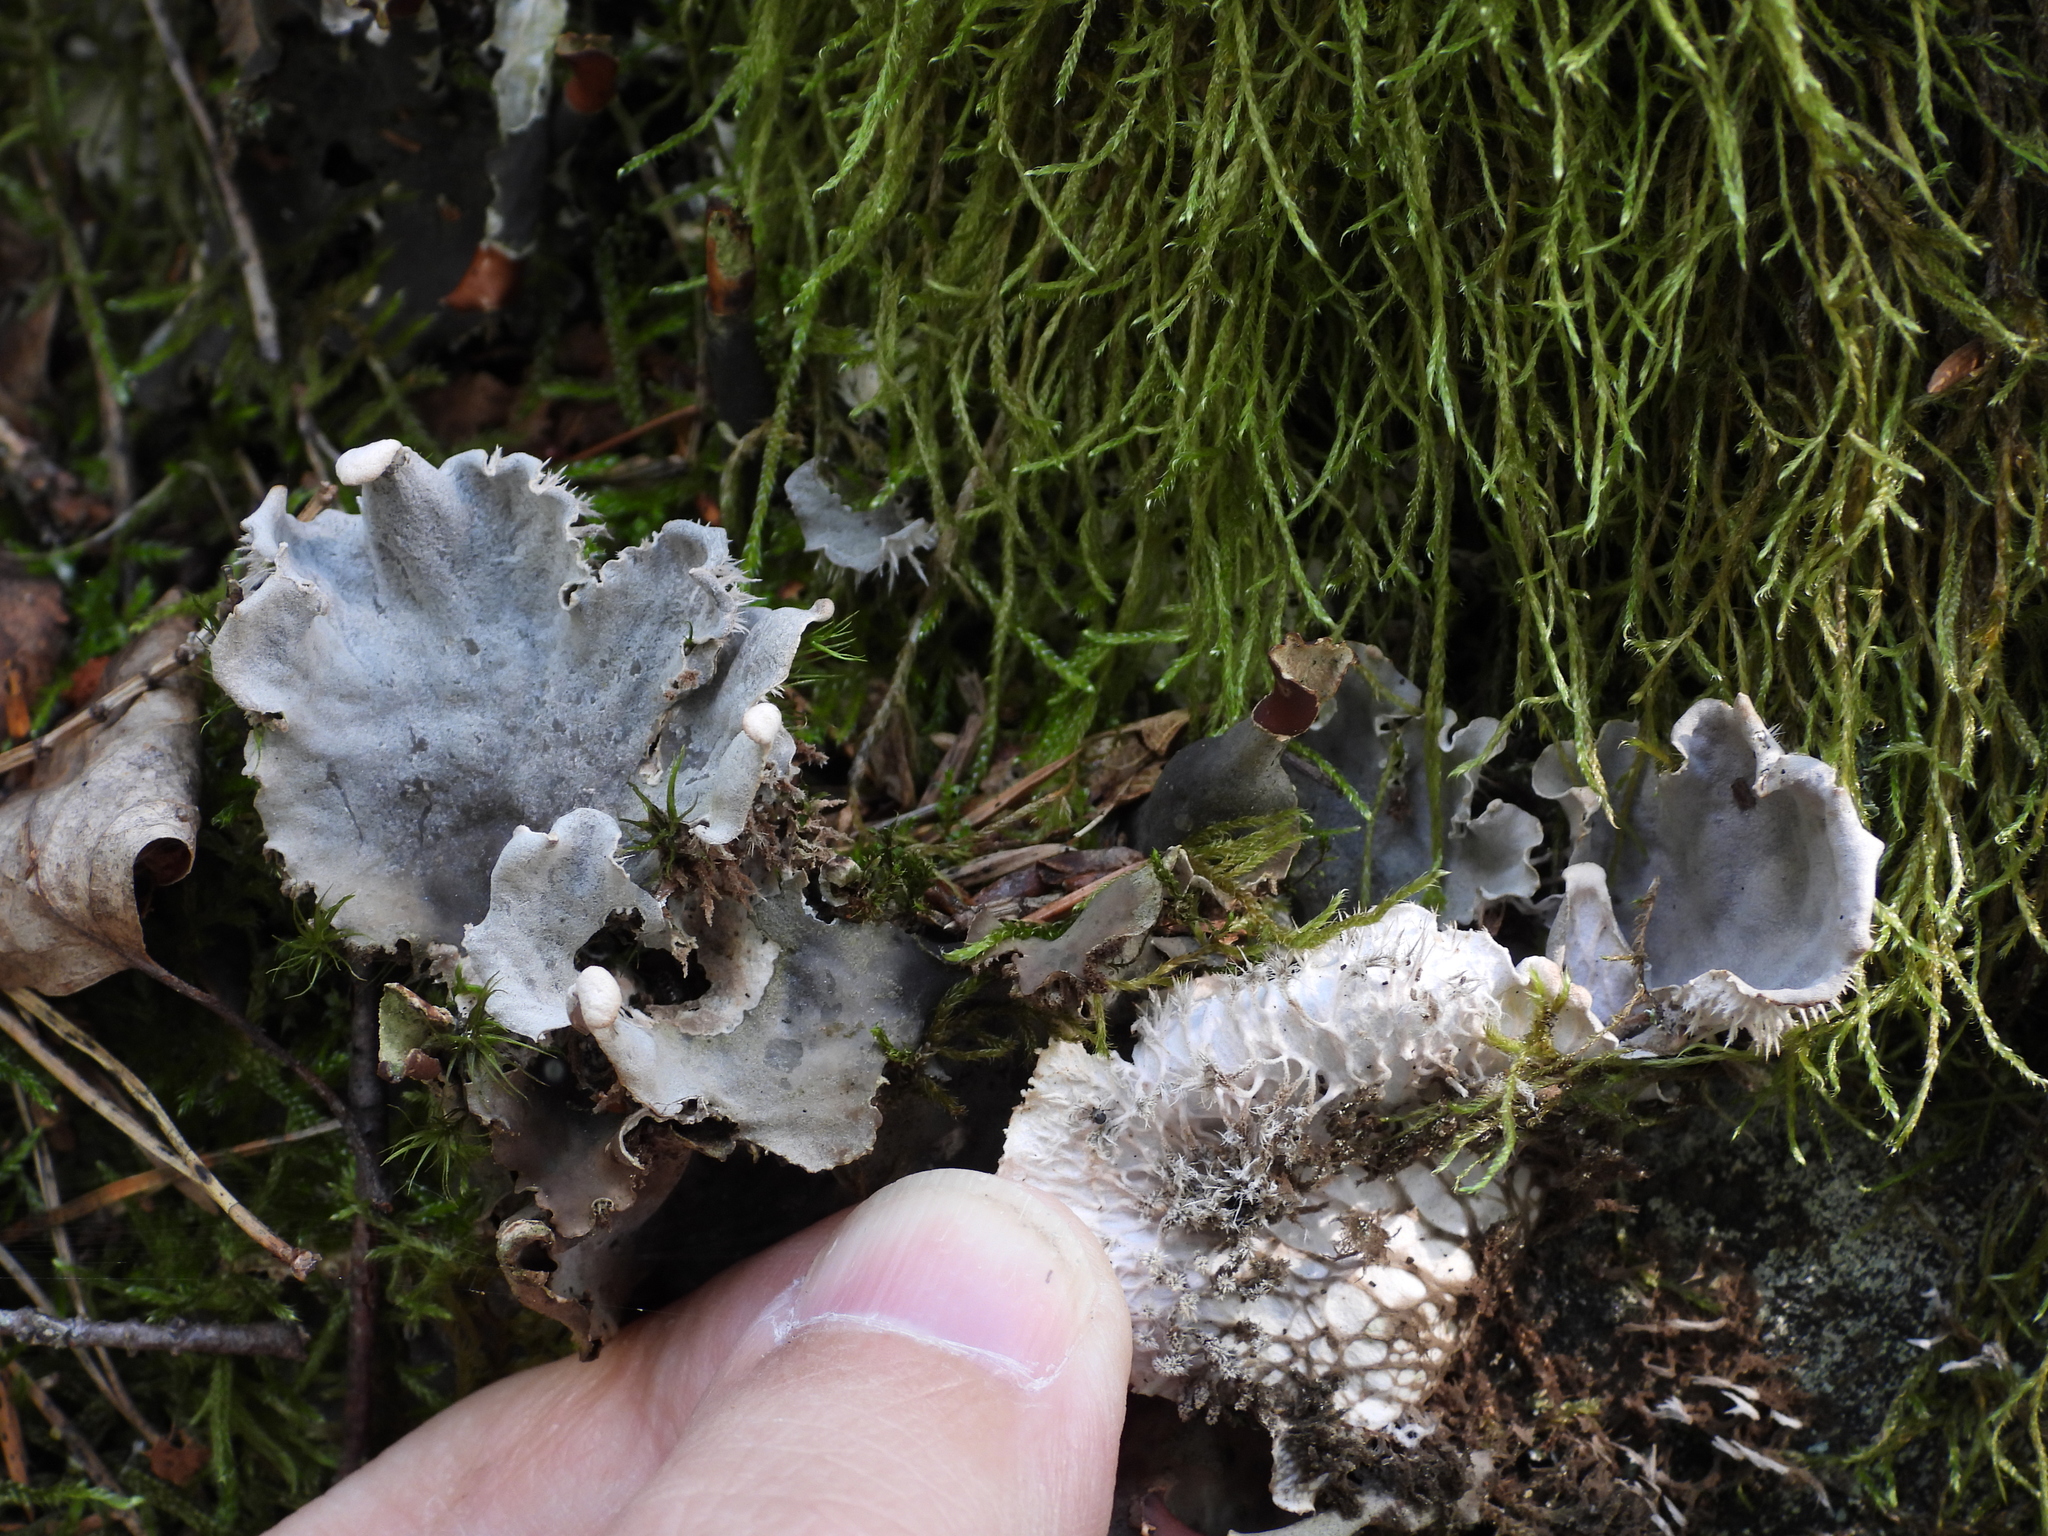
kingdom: Fungi
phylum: Ascomycota
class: Lecanoromycetes
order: Peltigerales
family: Peltigeraceae
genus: Peltigera
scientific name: Peltigera canina
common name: Dog pelt lichen
